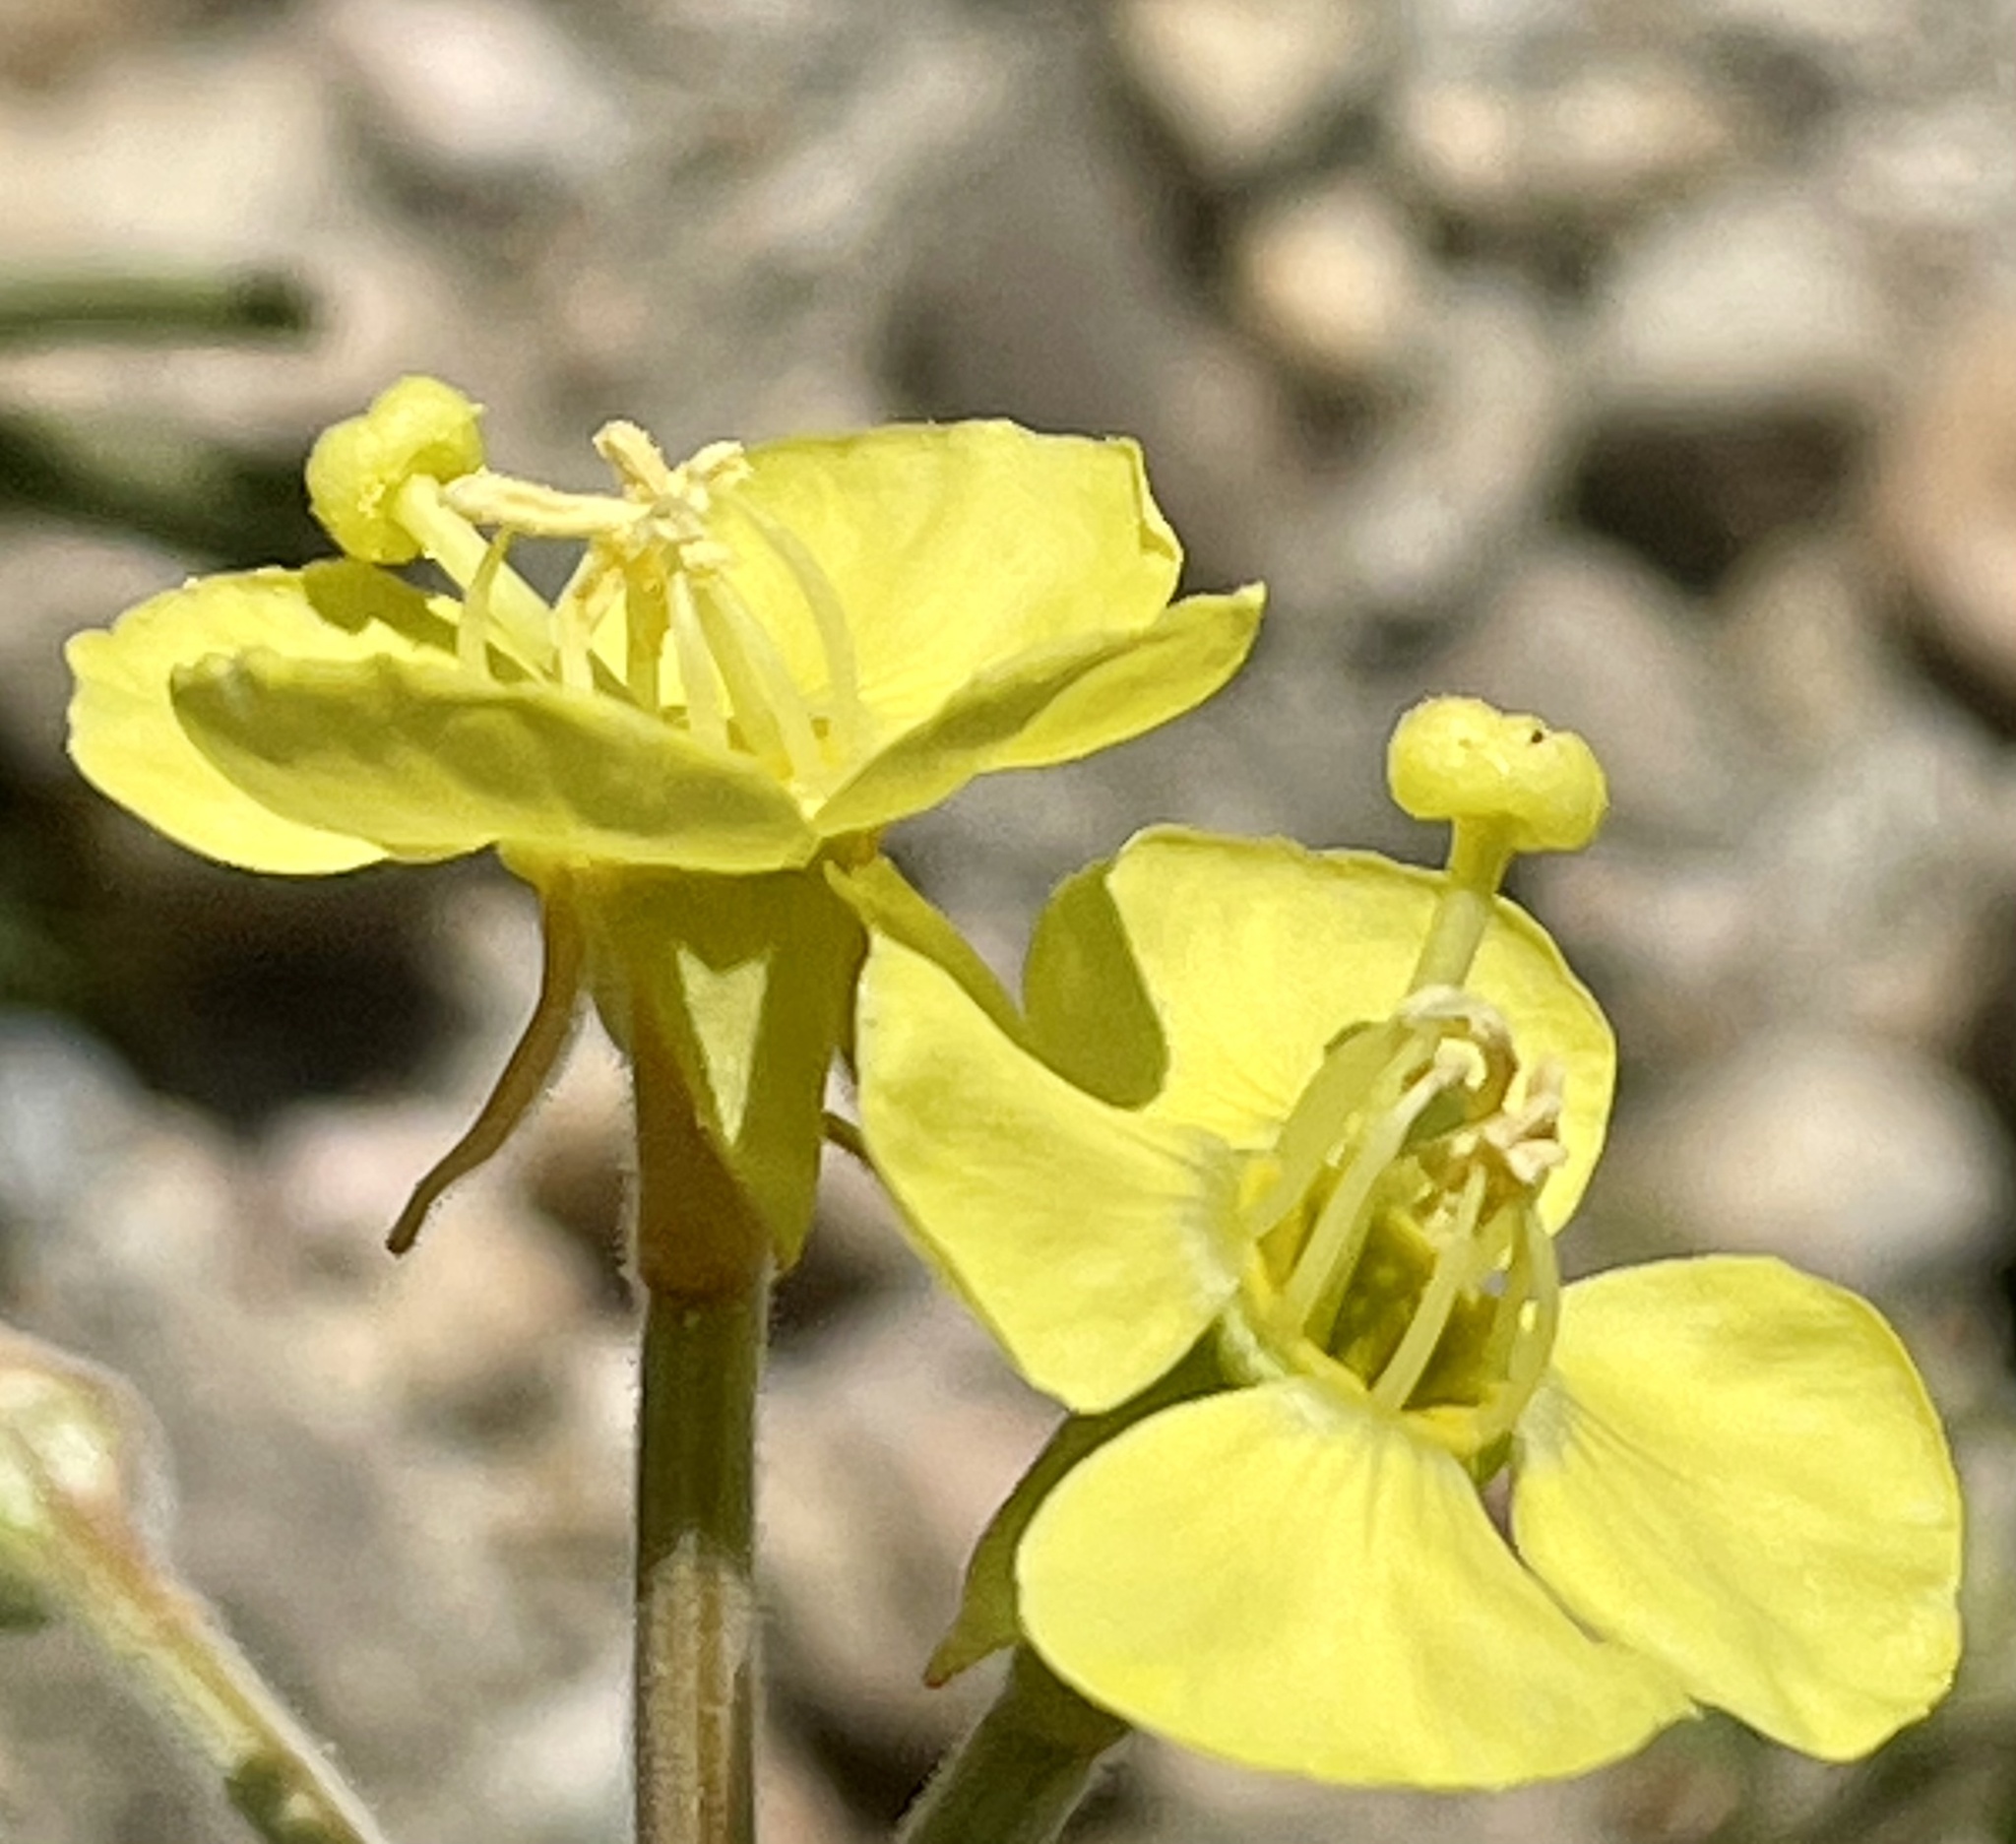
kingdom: Plantae
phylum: Tracheophyta
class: Magnoliopsida
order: Myrtales
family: Onagraceae
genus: Chylismia
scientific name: Chylismia cardiophylla
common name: Heartleaf suncup
